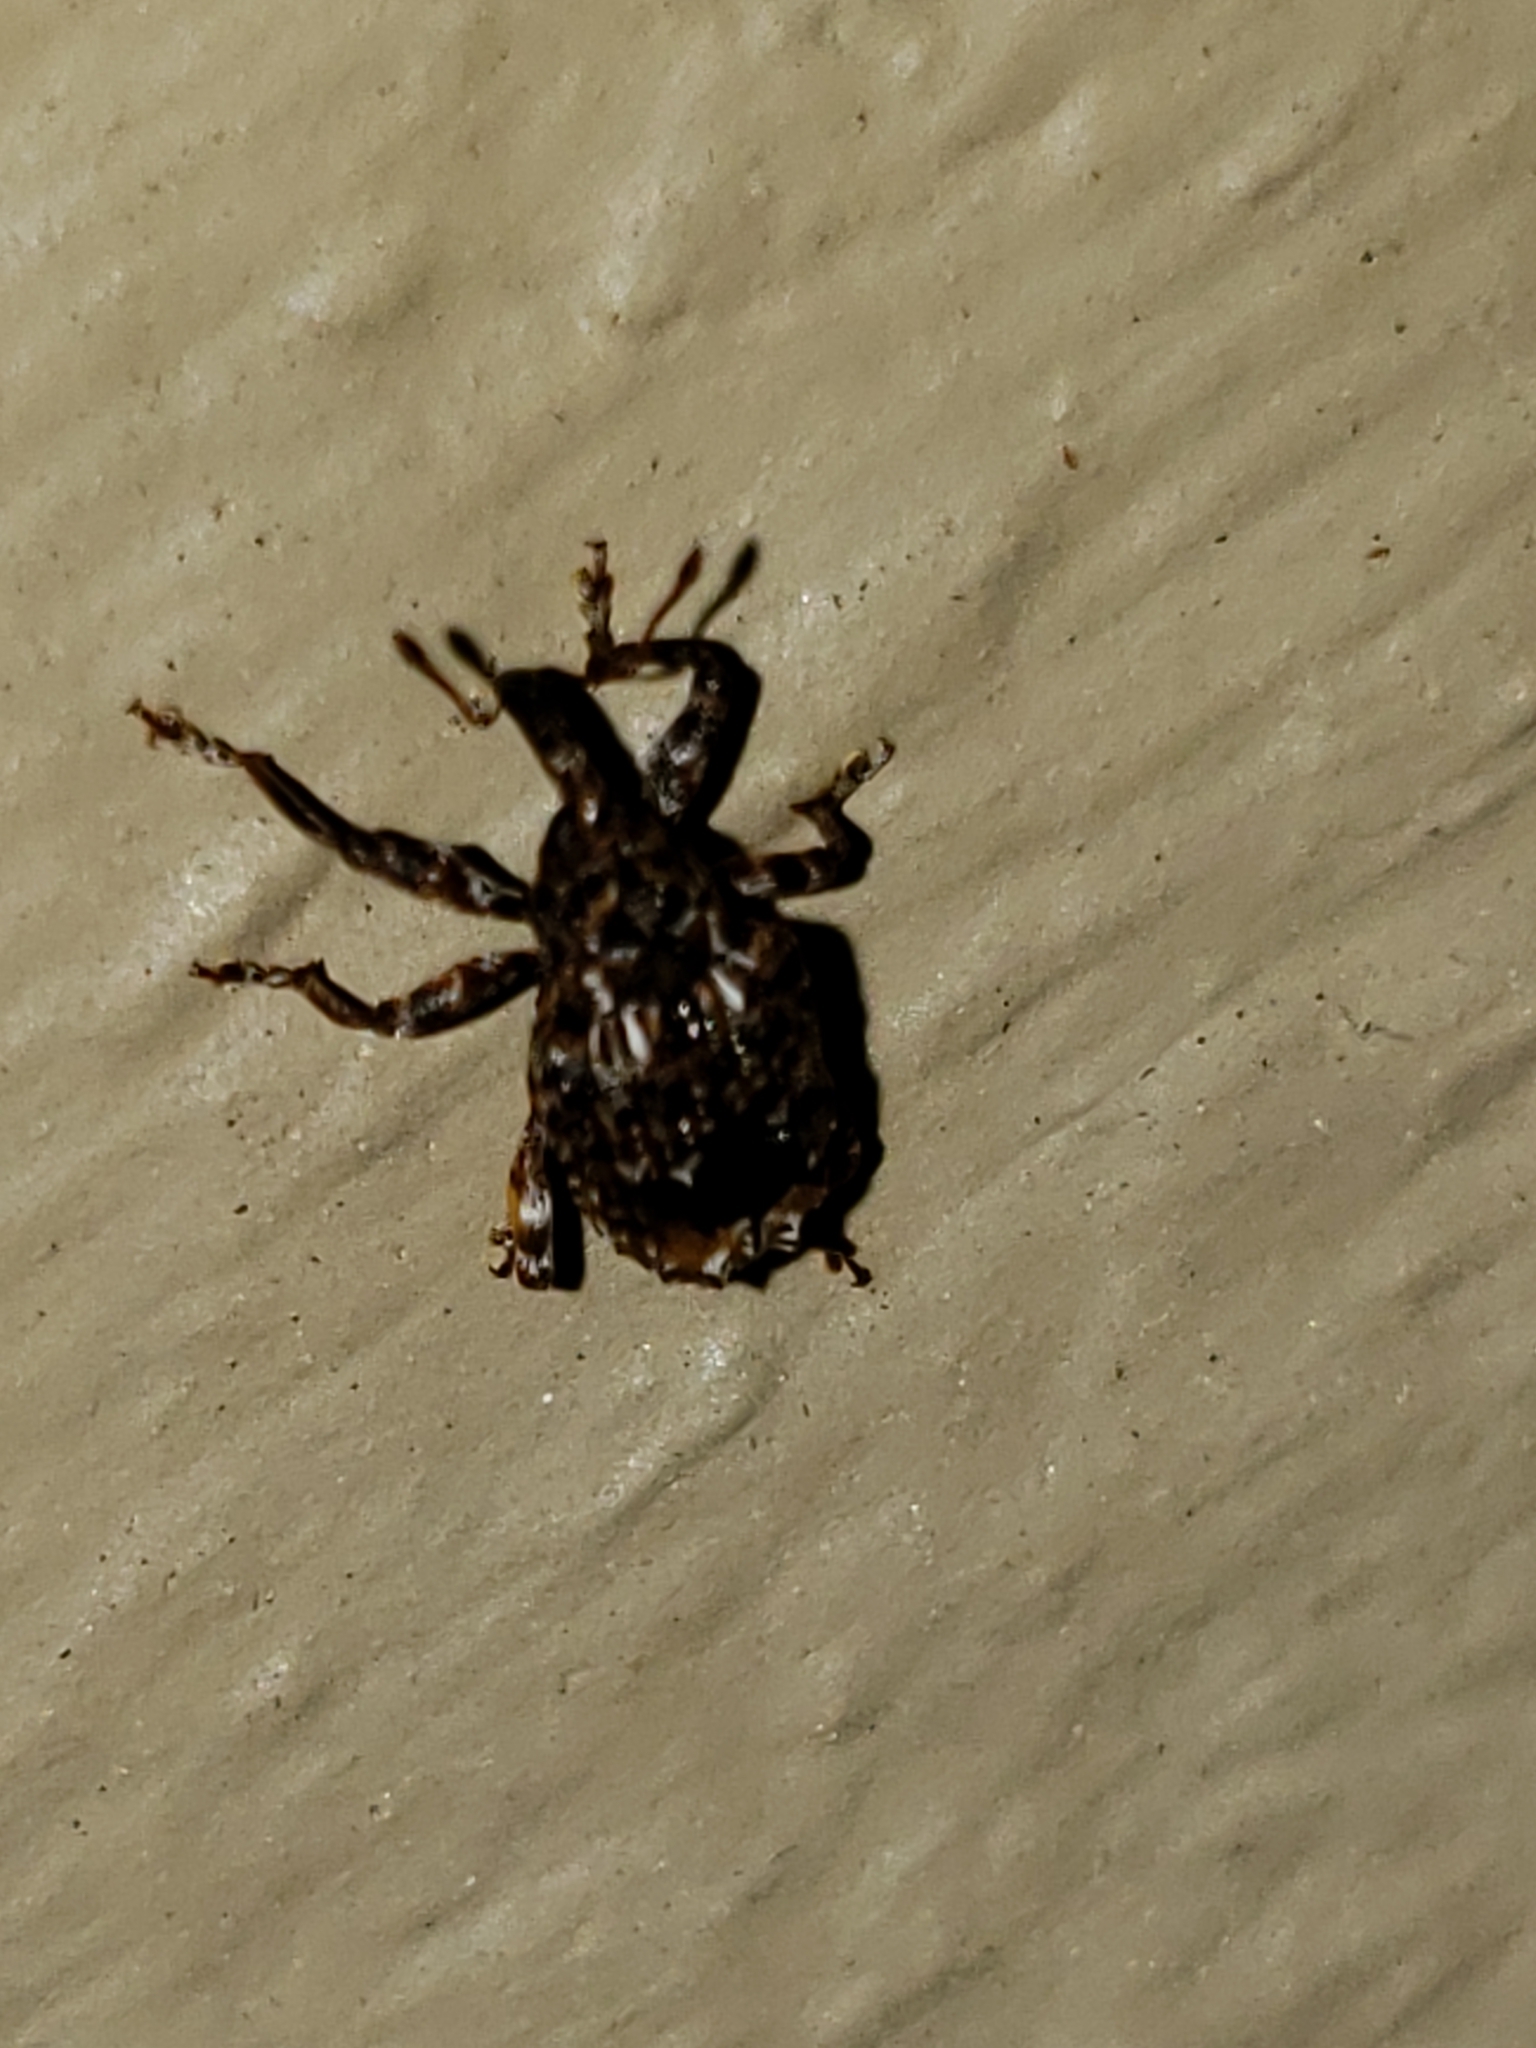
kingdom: Animalia
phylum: Arthropoda
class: Insecta
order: Coleoptera
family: Curculionidae
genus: Conotrachelus
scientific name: Conotrachelus nenuphar
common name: Plum curculio
